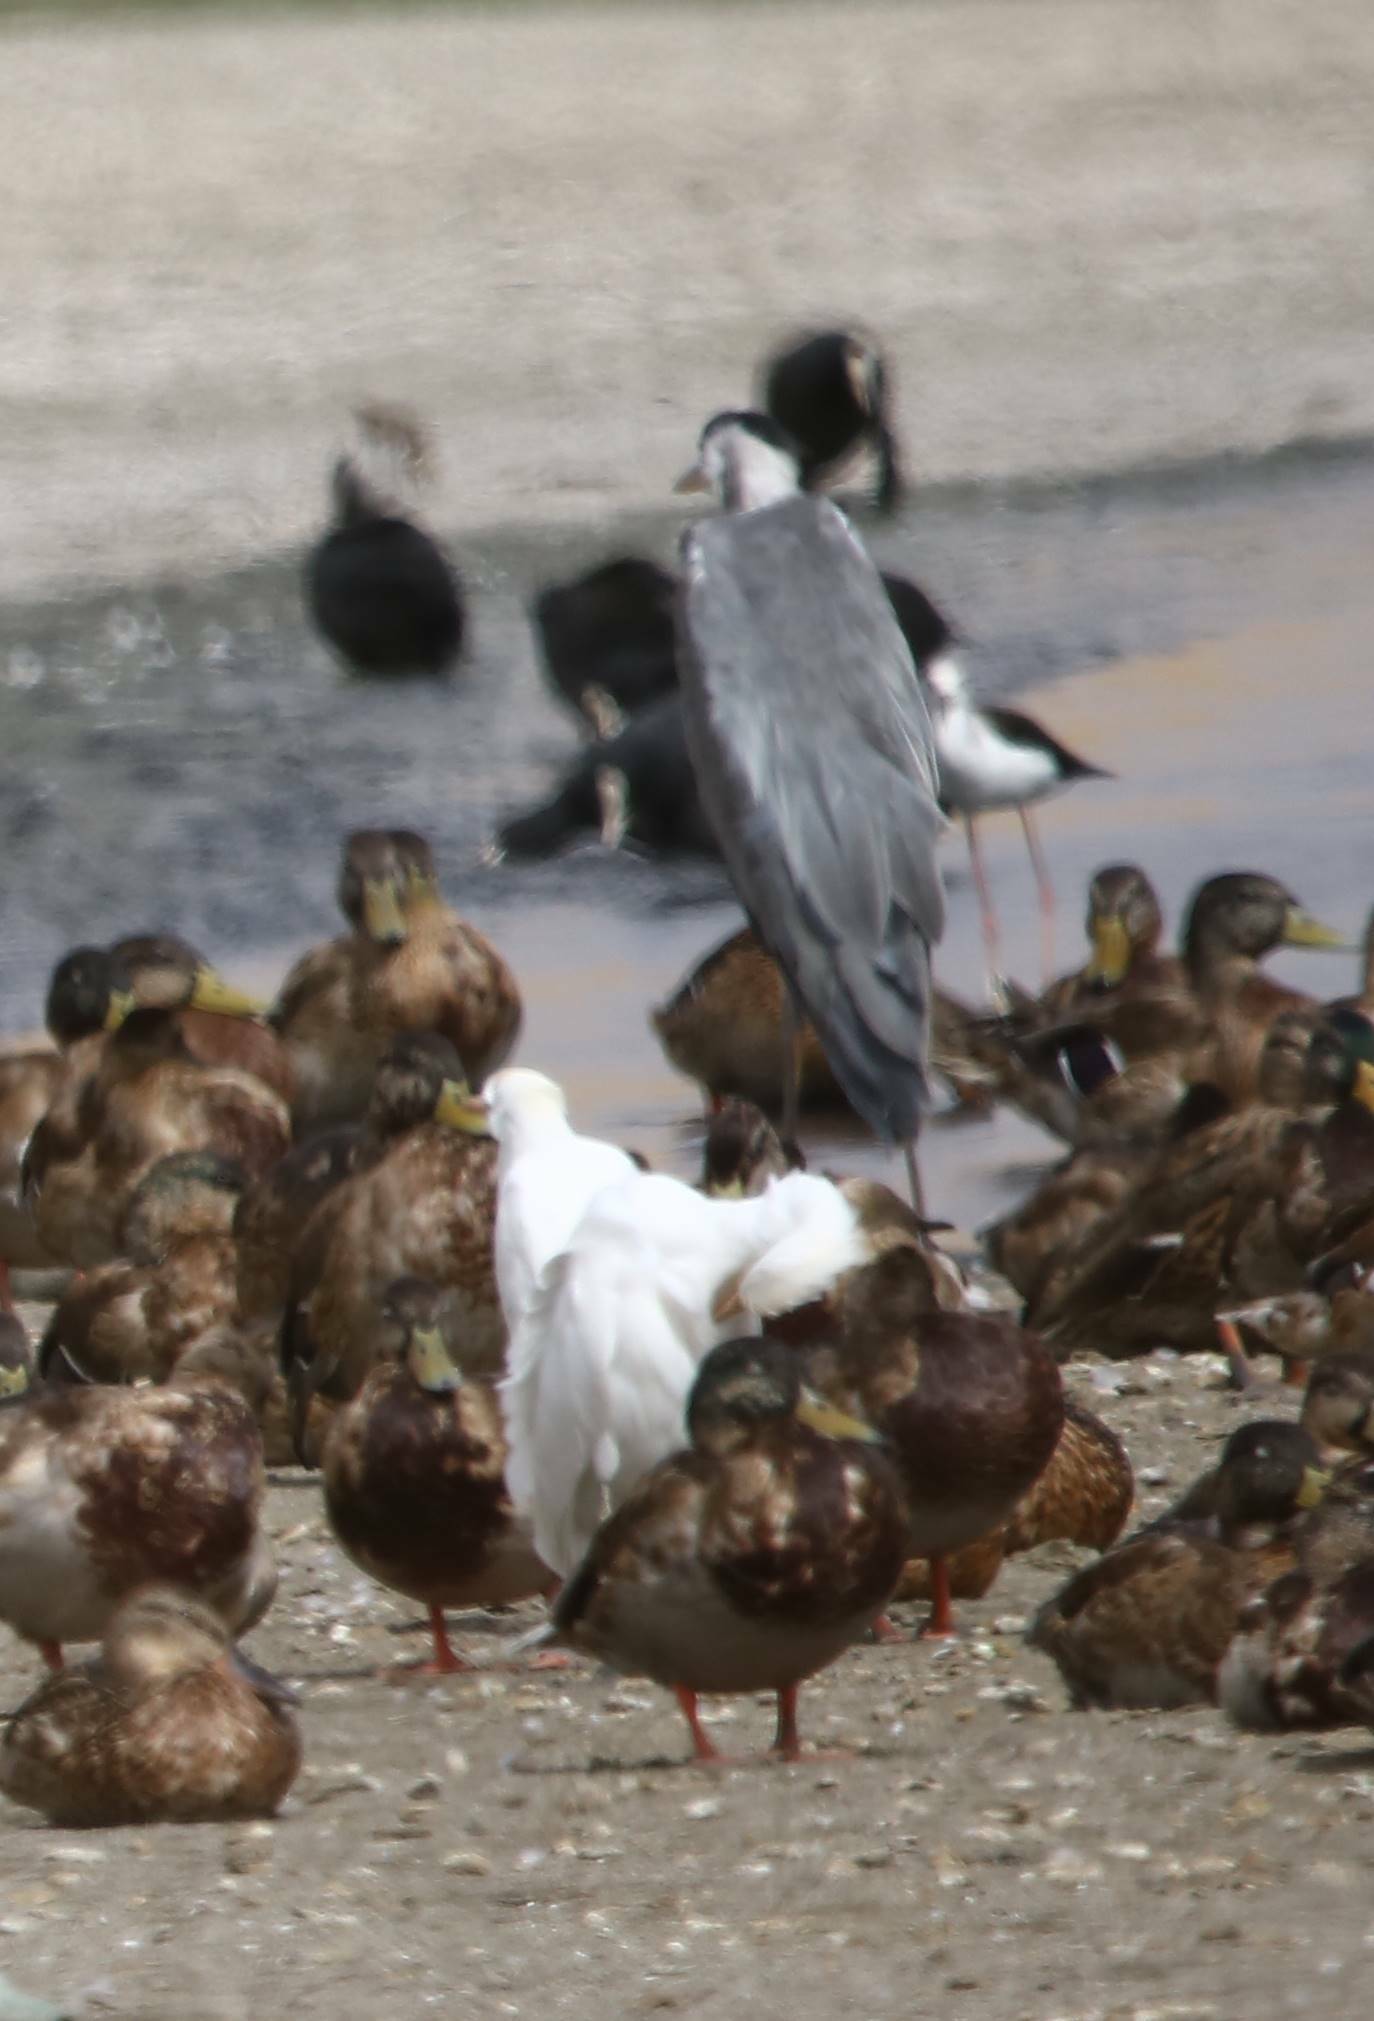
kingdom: Animalia
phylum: Chordata
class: Aves
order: Pelecaniformes
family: Ardeidae
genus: Ardea
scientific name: Ardea cinerea
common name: Grey heron
